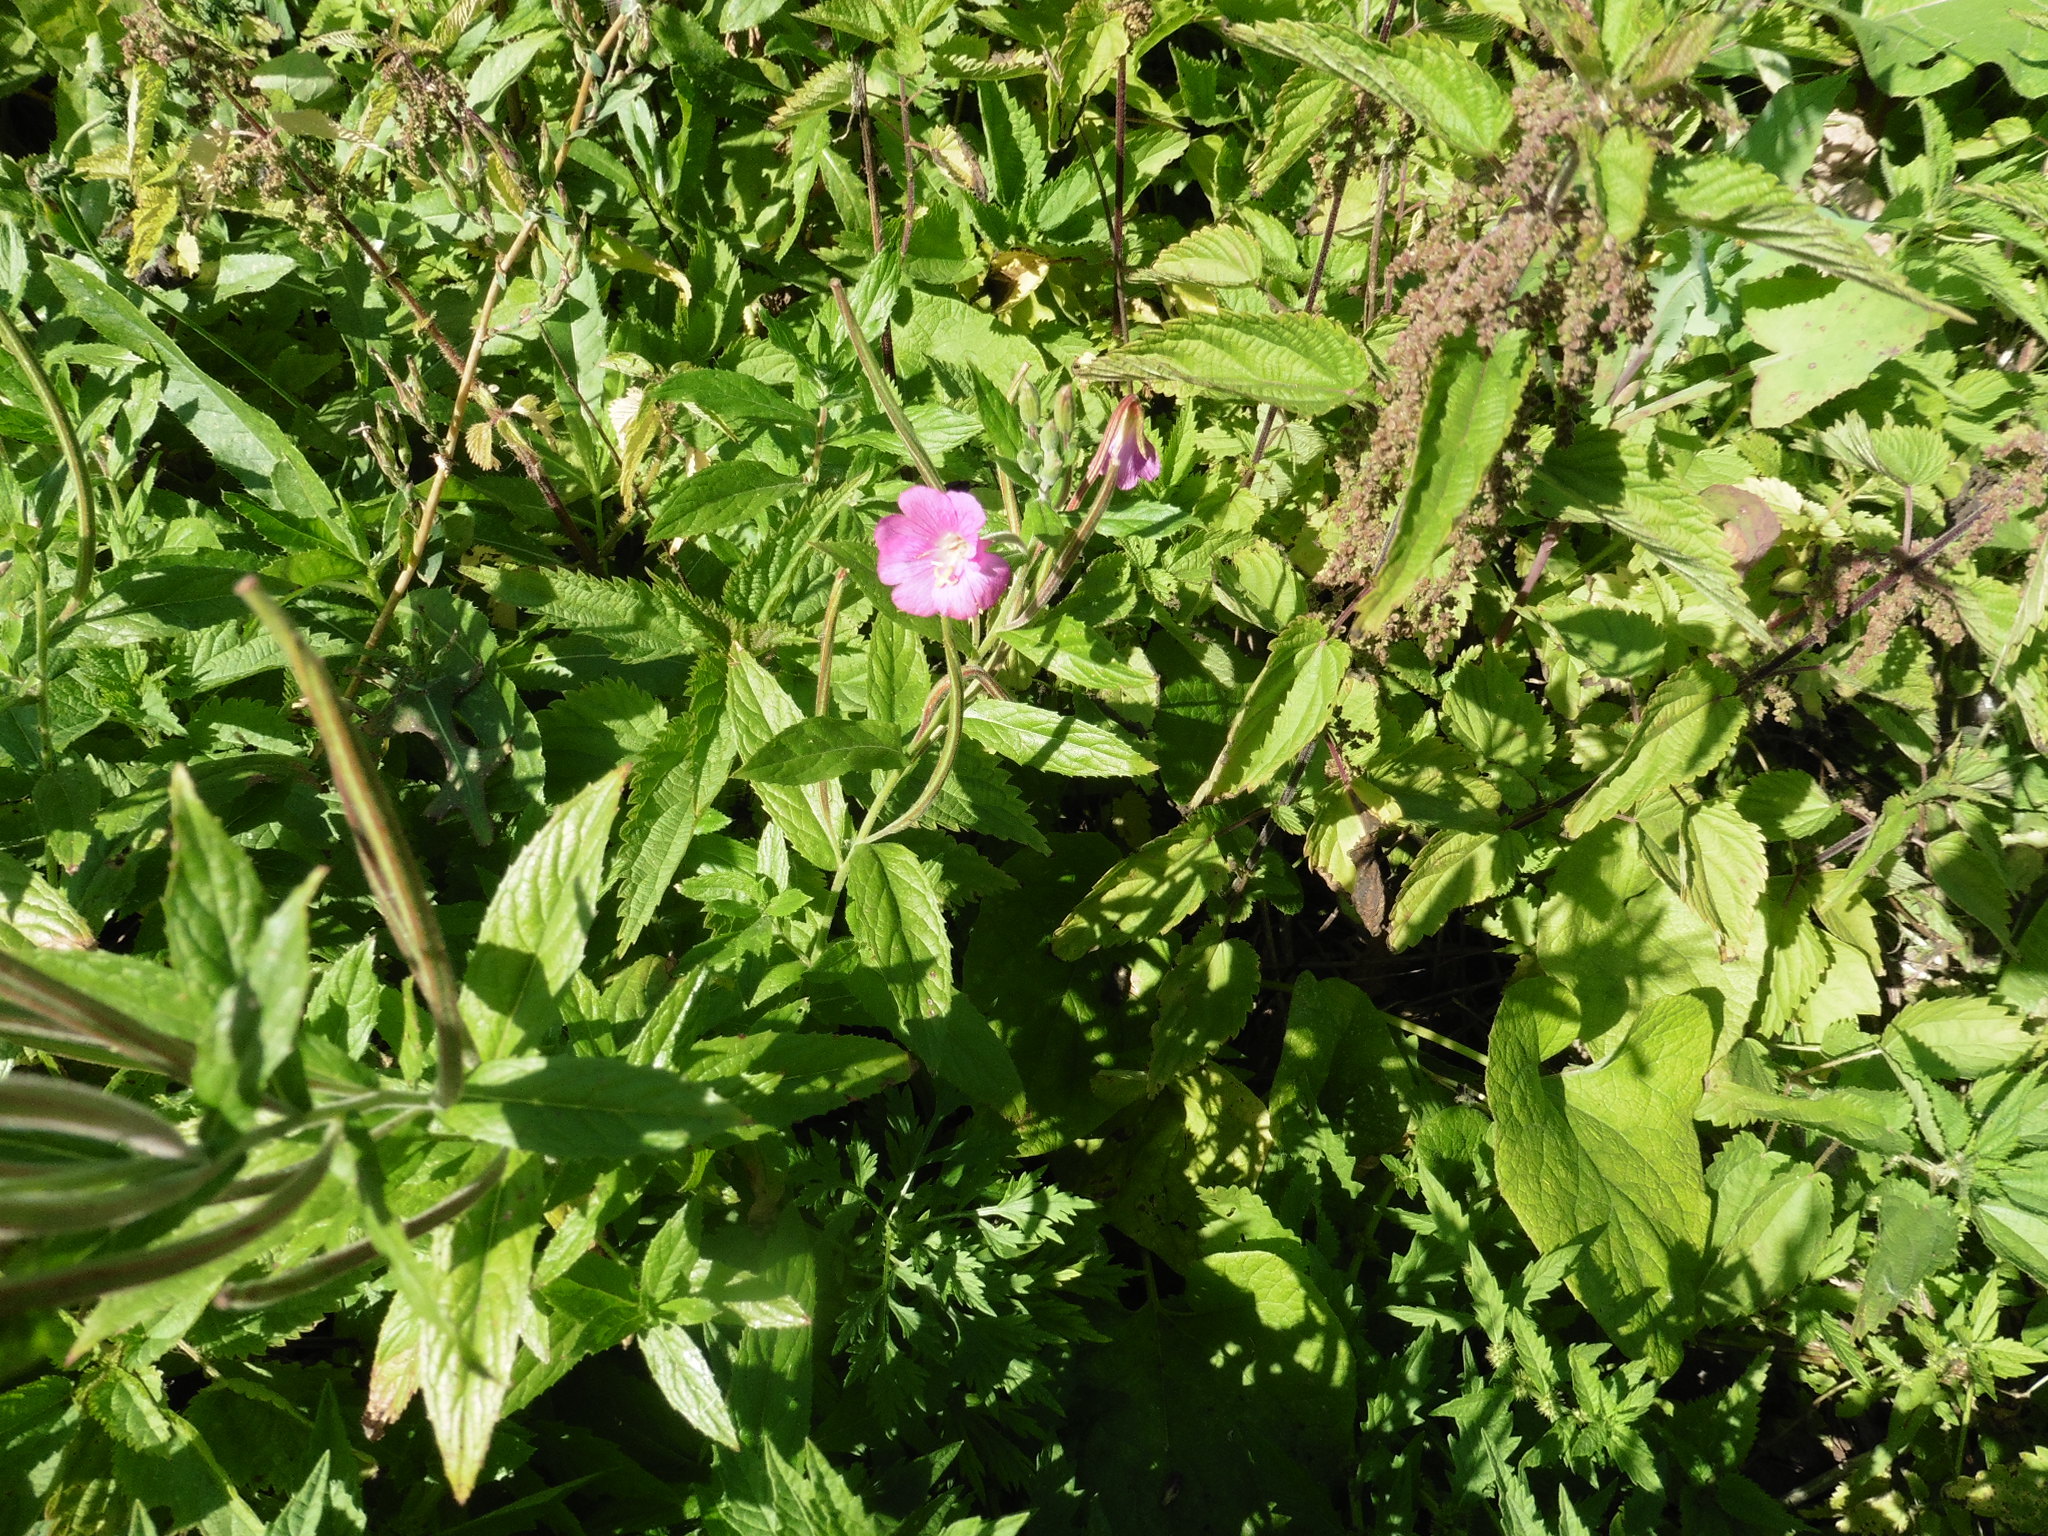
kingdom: Plantae
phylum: Tracheophyta
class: Magnoliopsida
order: Myrtales
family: Onagraceae
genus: Epilobium
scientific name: Epilobium hirsutum
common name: Great willowherb
